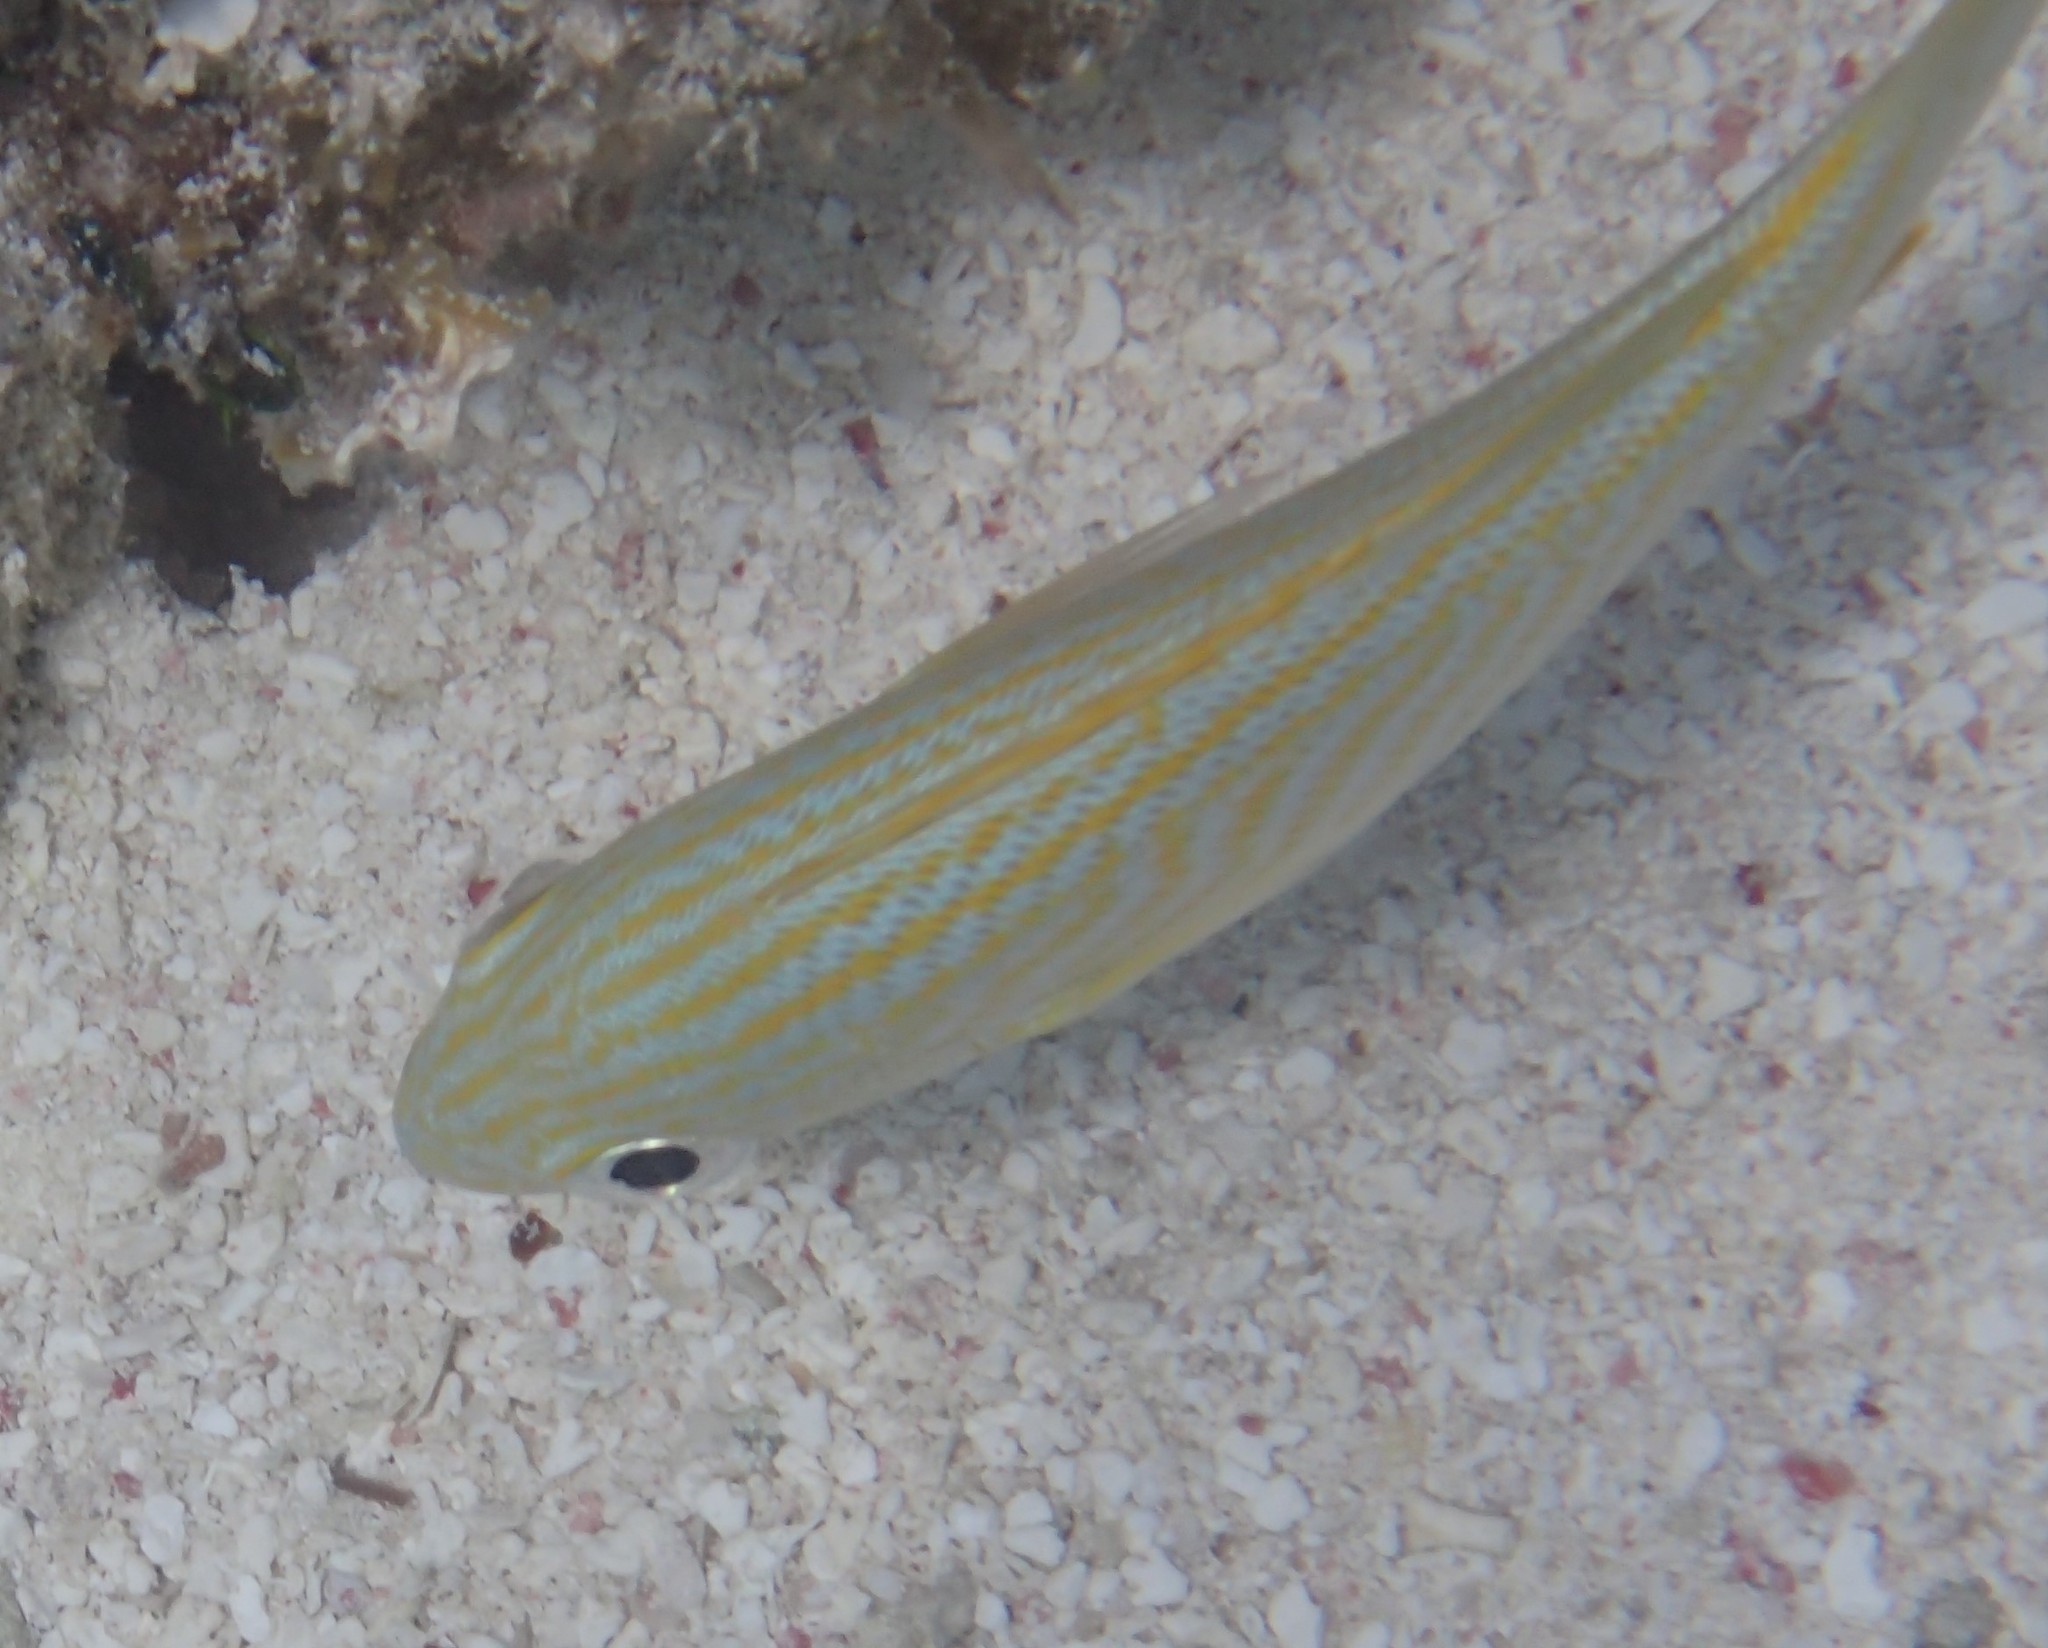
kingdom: Animalia
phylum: Chordata
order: Perciformes
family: Haemulidae
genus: Haemulon
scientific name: Haemulon flavolineatum
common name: French grunt
